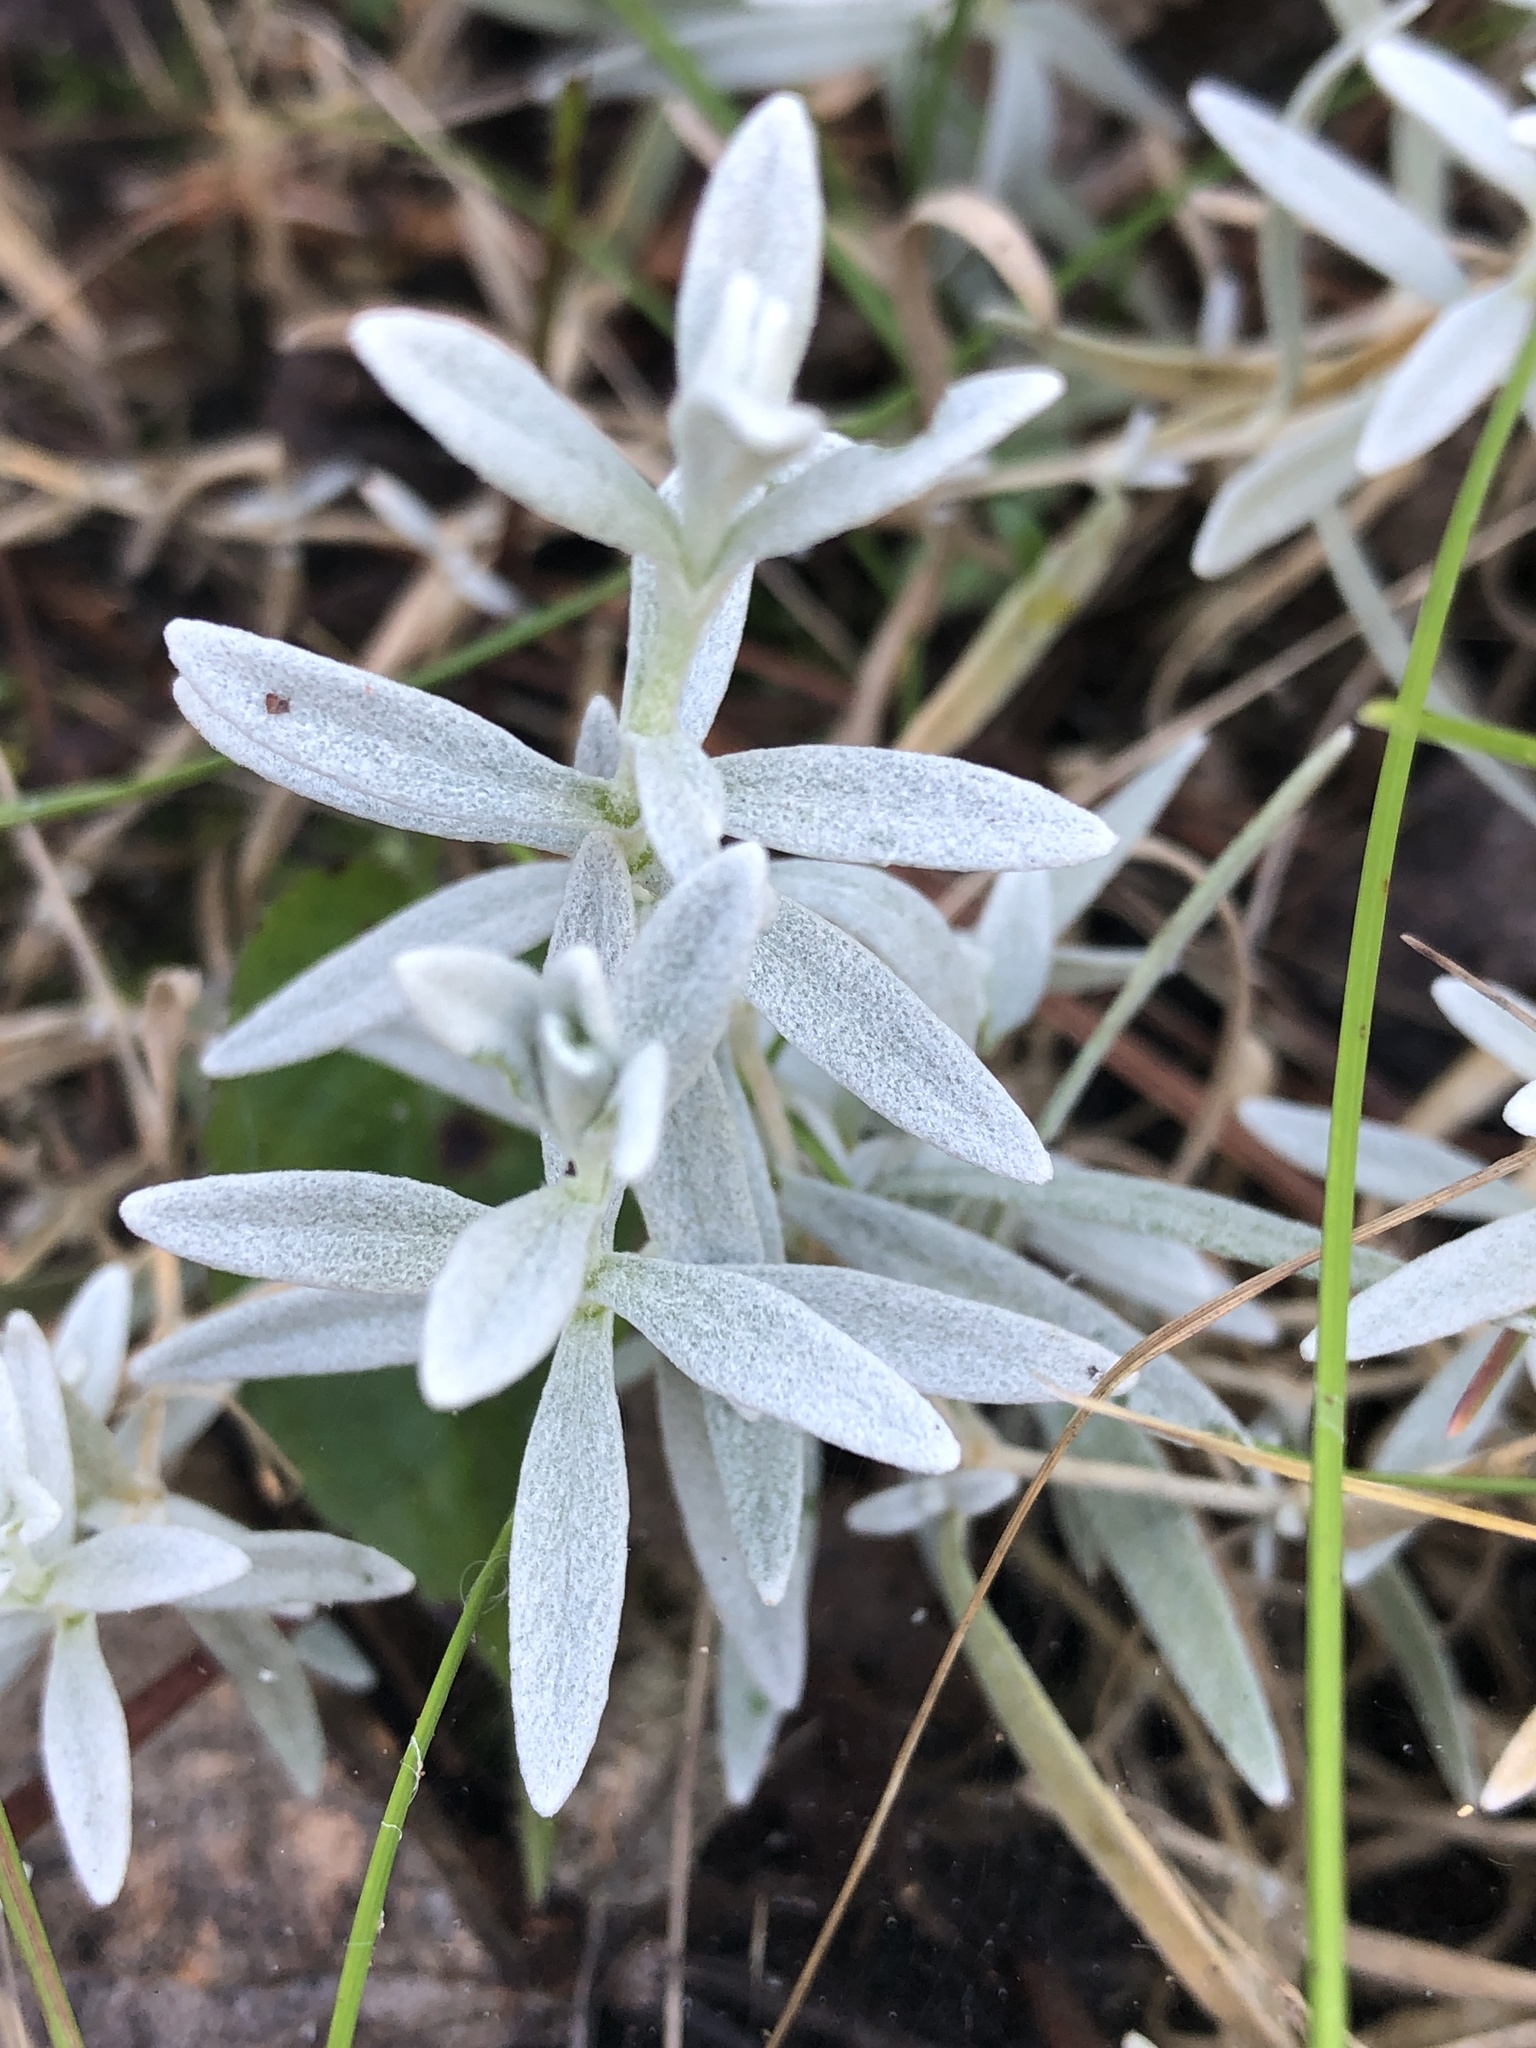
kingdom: Plantae
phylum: Tracheophyta
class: Magnoliopsida
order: Asterales
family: Asteraceae
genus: Artemisia
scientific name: Artemisia ludoviciana
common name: Western mugwort
